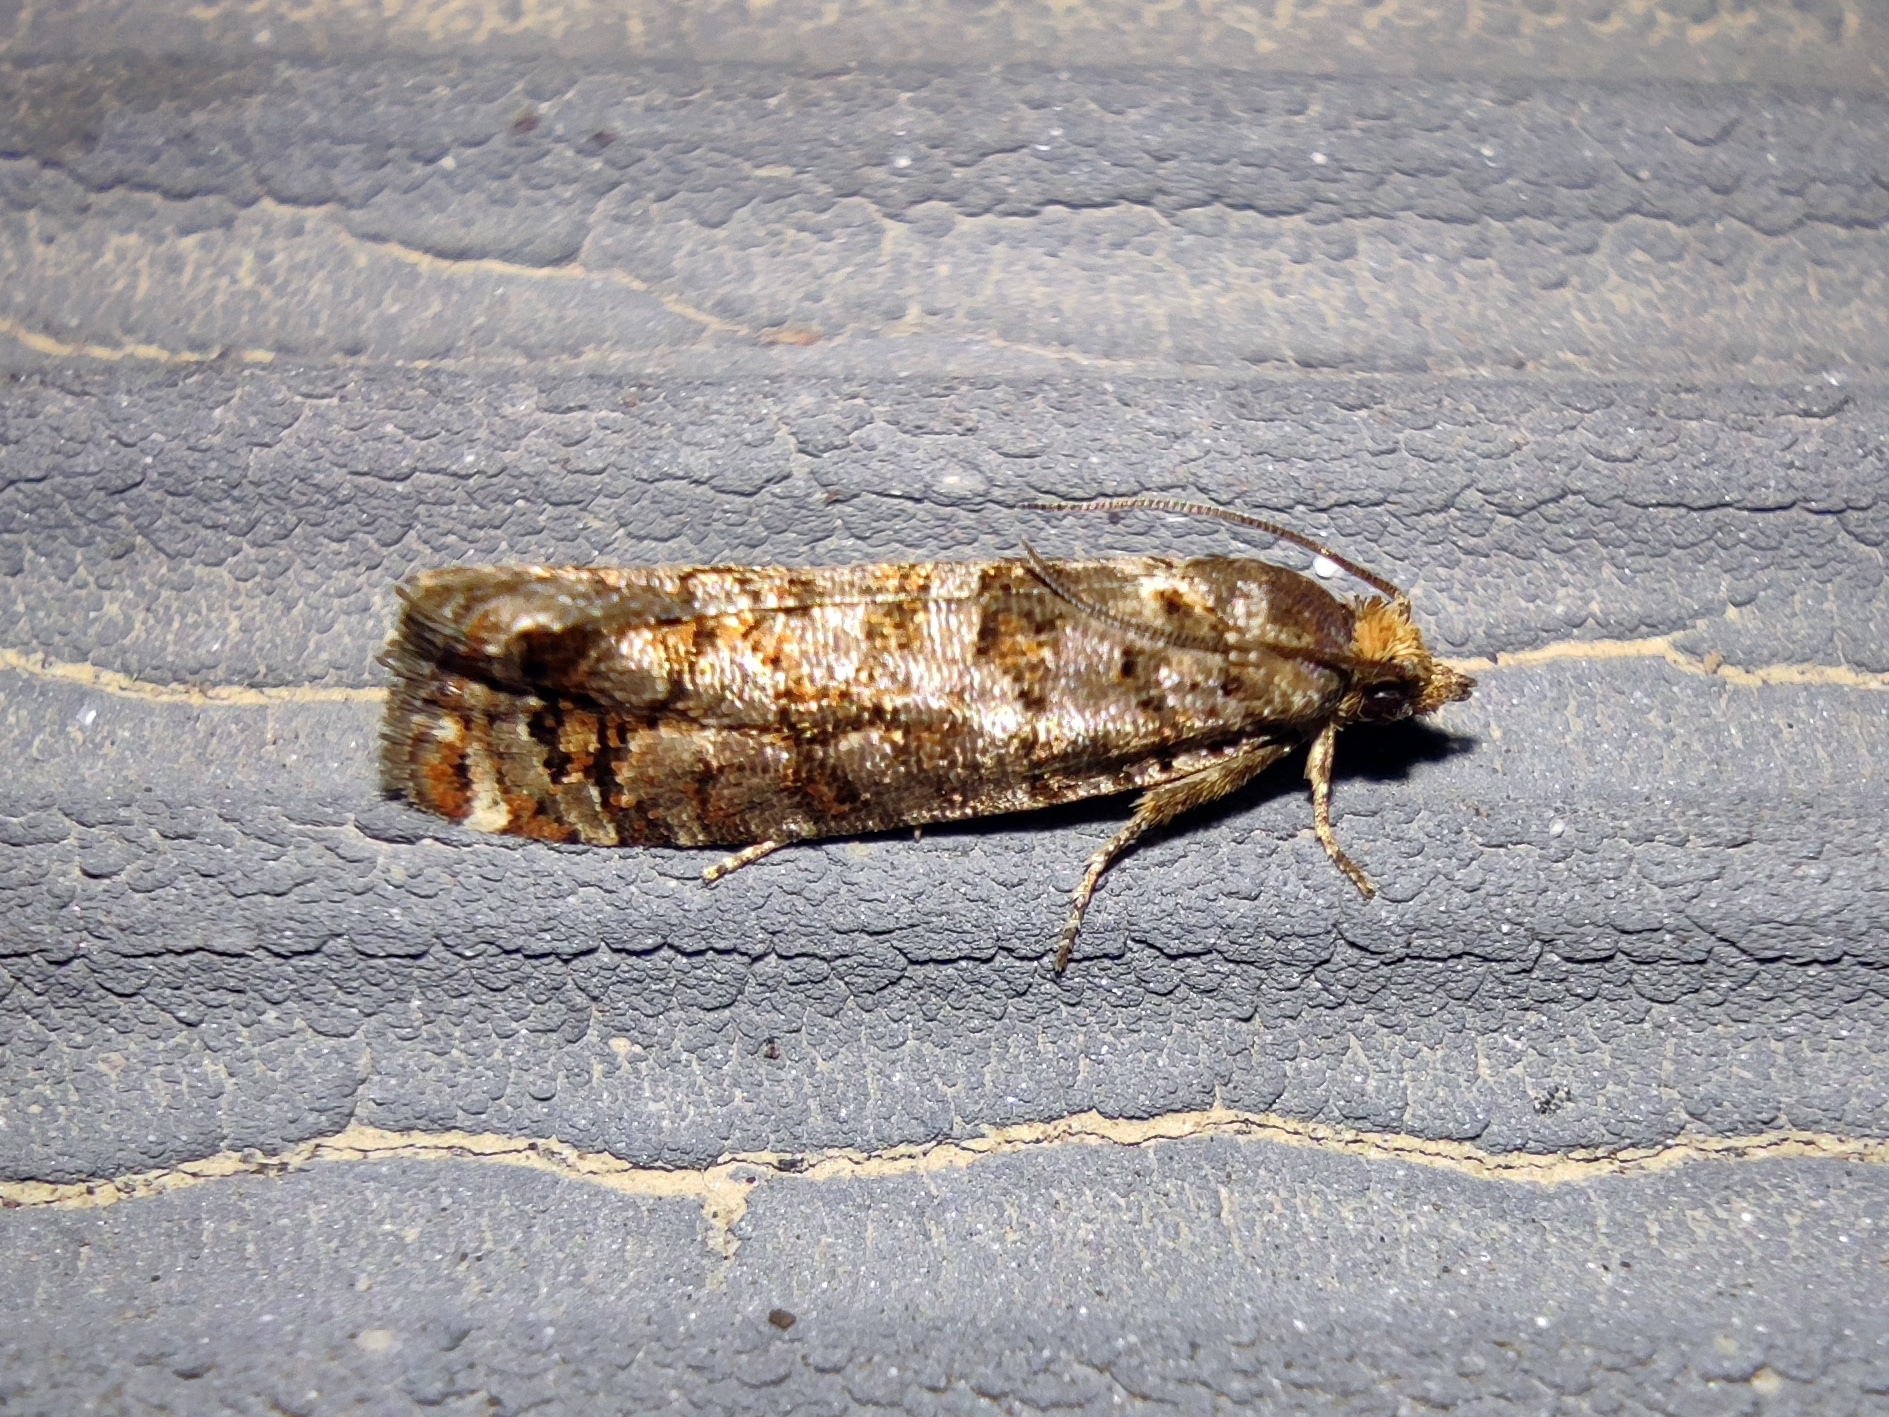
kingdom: Animalia
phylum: Arthropoda
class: Insecta
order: Lepidoptera
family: Tortricidae
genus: Gravitarmata
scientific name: Gravitarmata margarotana
